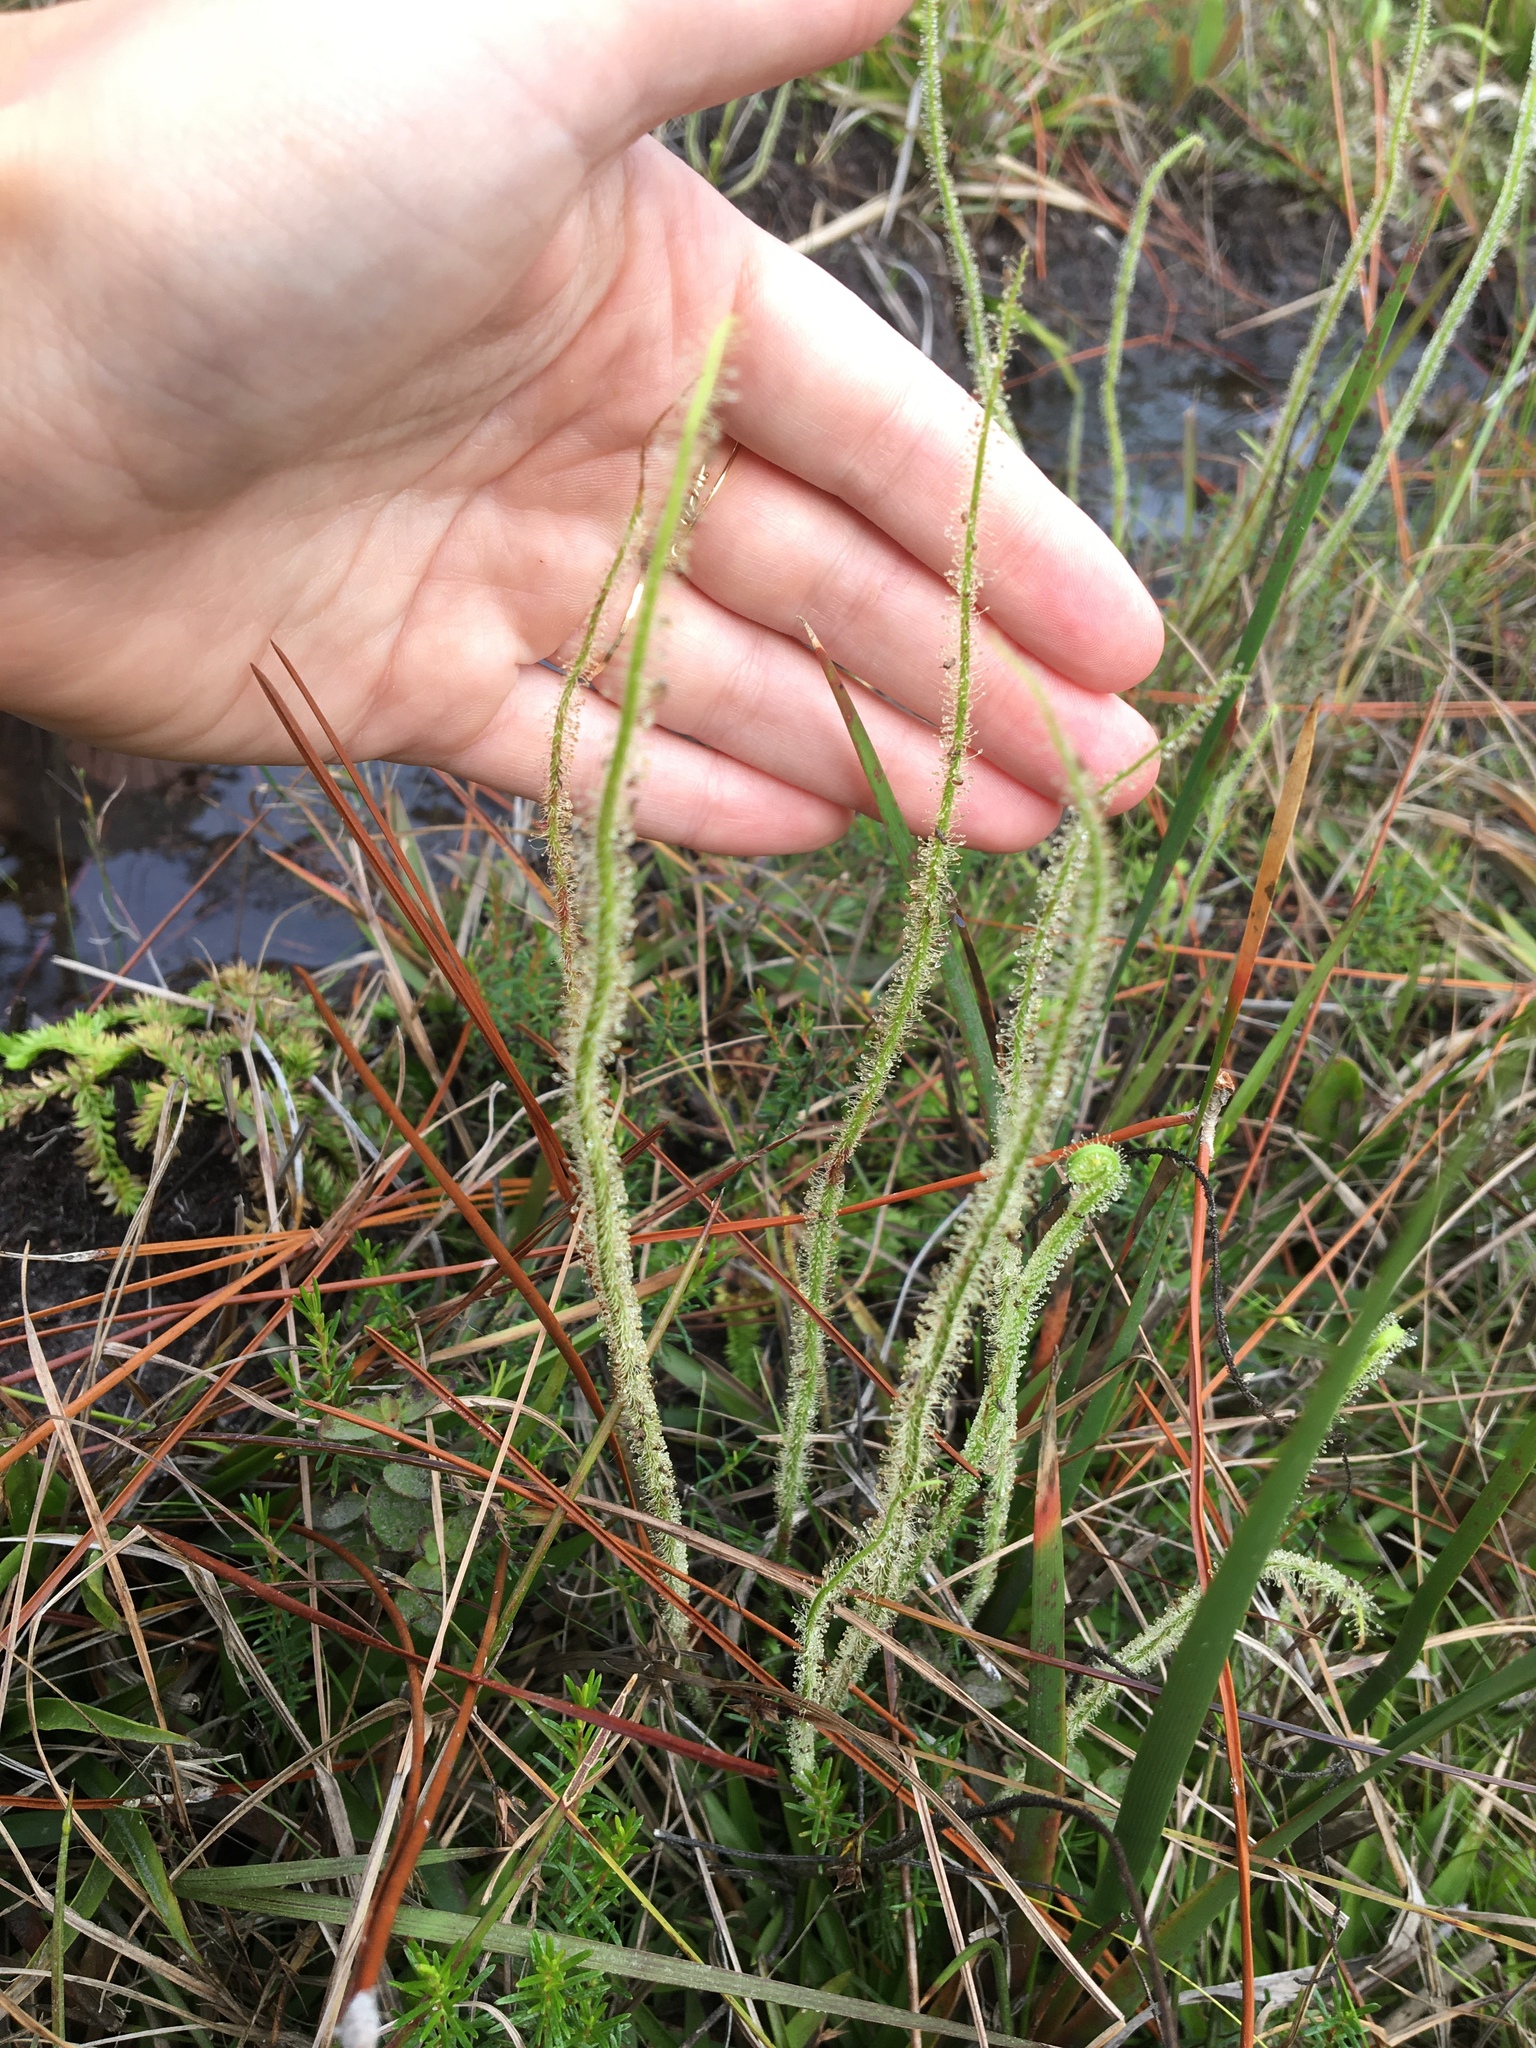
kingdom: Plantae
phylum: Tracheophyta
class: Magnoliopsida
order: Caryophyllales
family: Droseraceae
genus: Drosera
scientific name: Drosera filiformis
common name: Dew-thread
